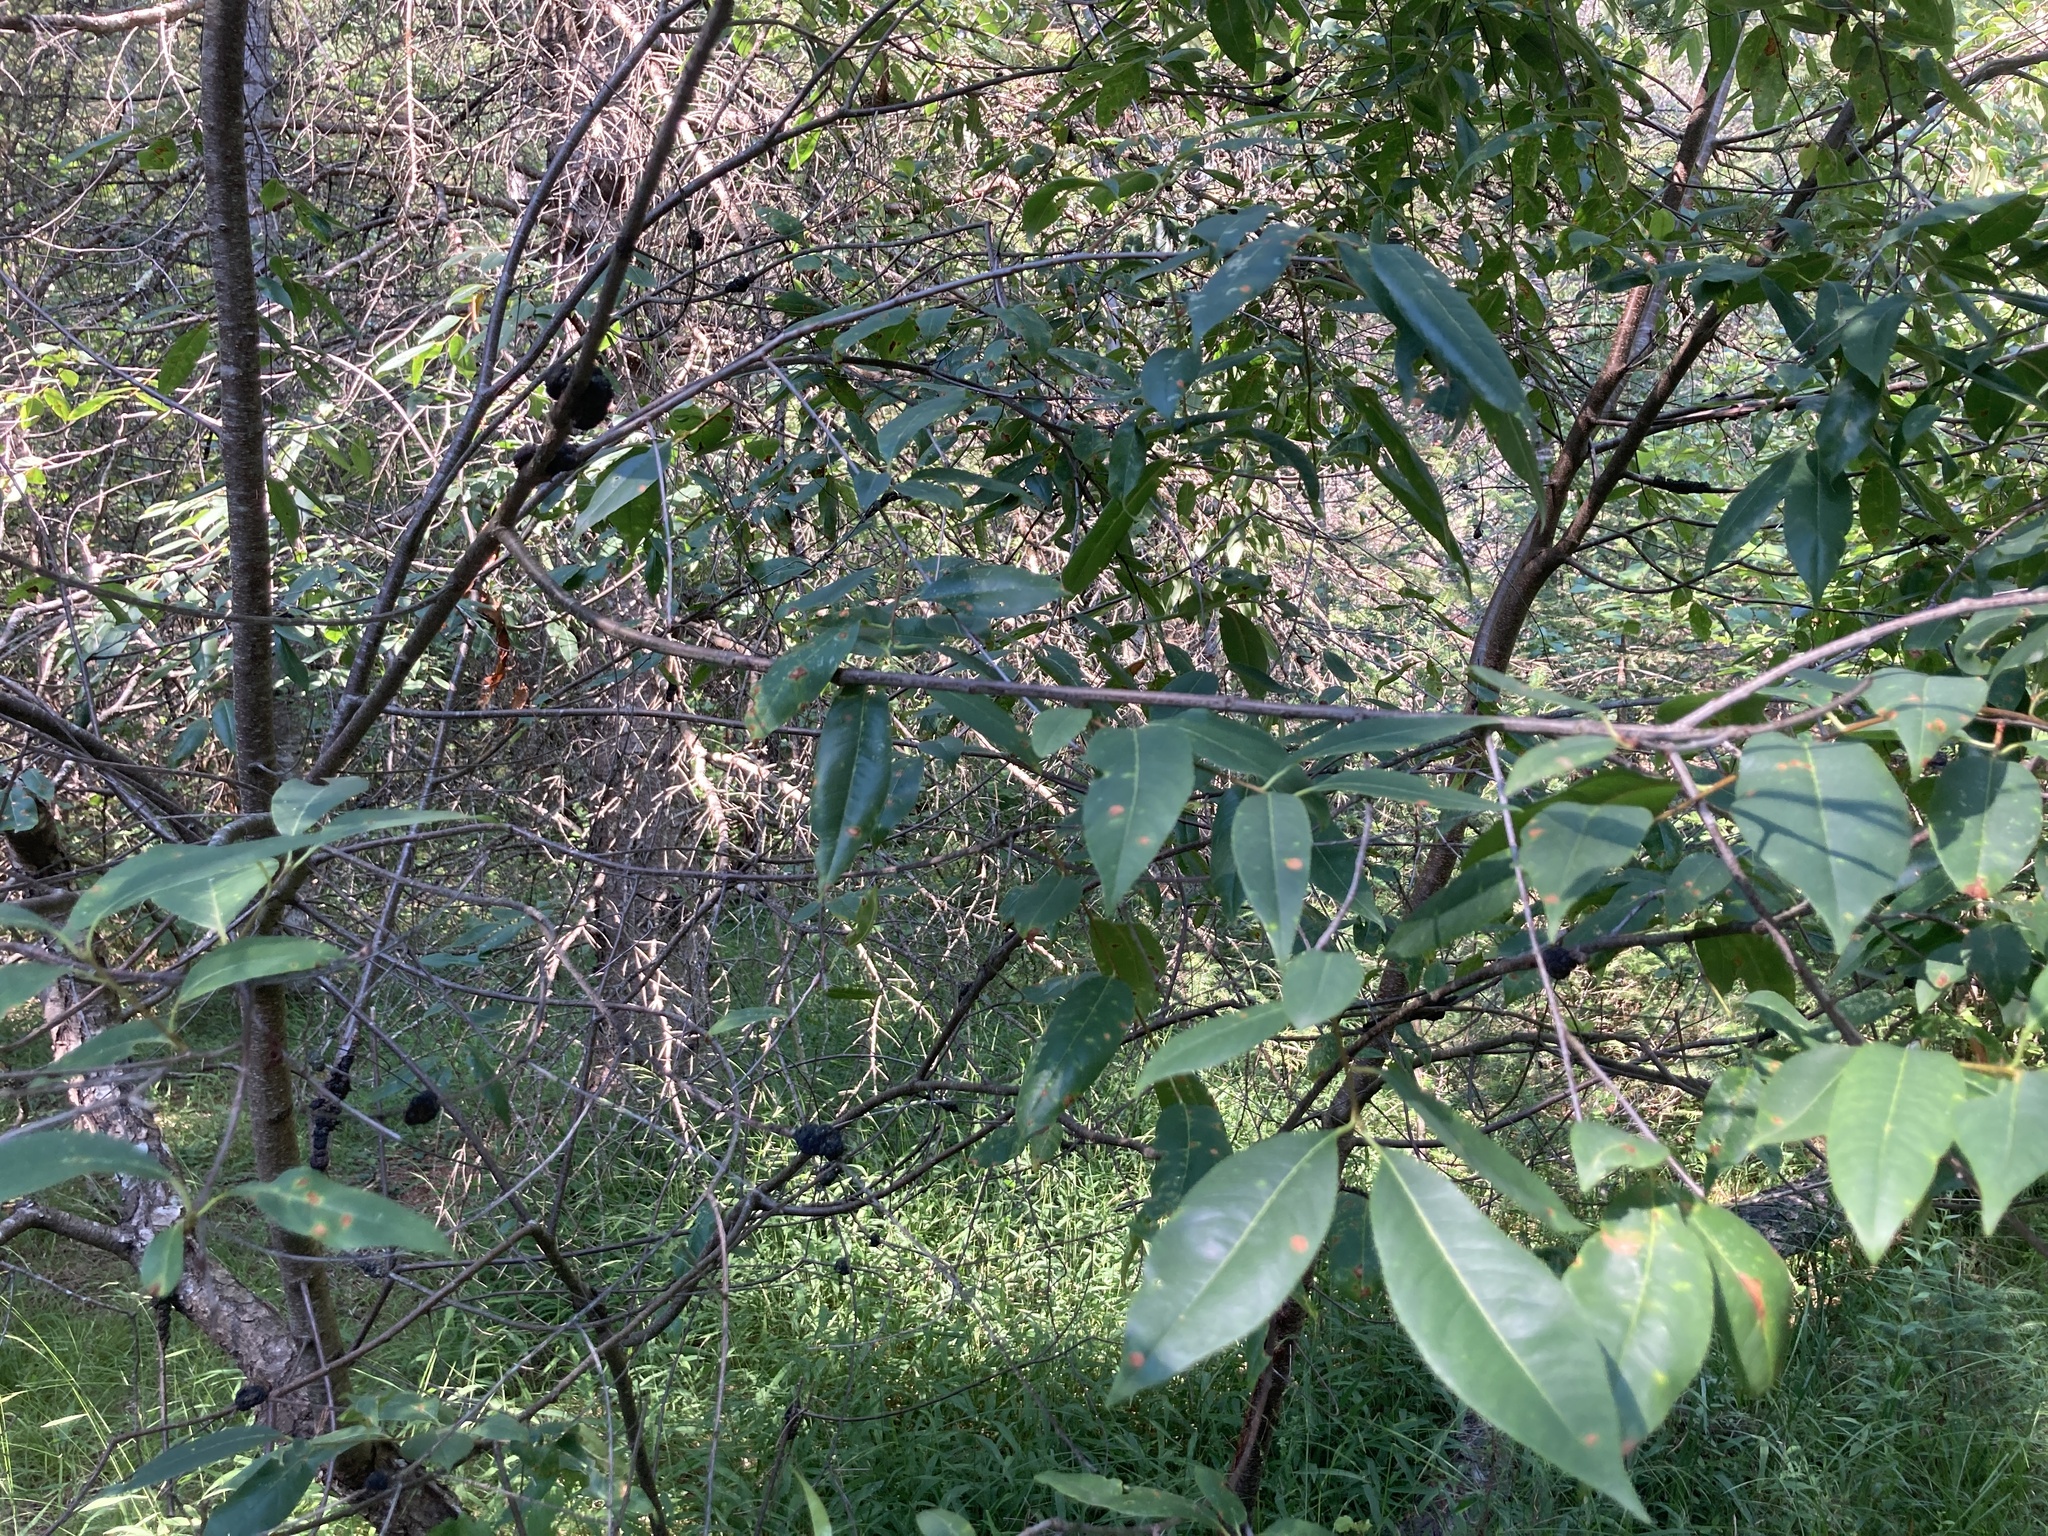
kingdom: Plantae
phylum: Tracheophyta
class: Magnoliopsida
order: Rosales
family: Rosaceae
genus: Prunus
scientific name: Prunus serotina
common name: Black cherry
